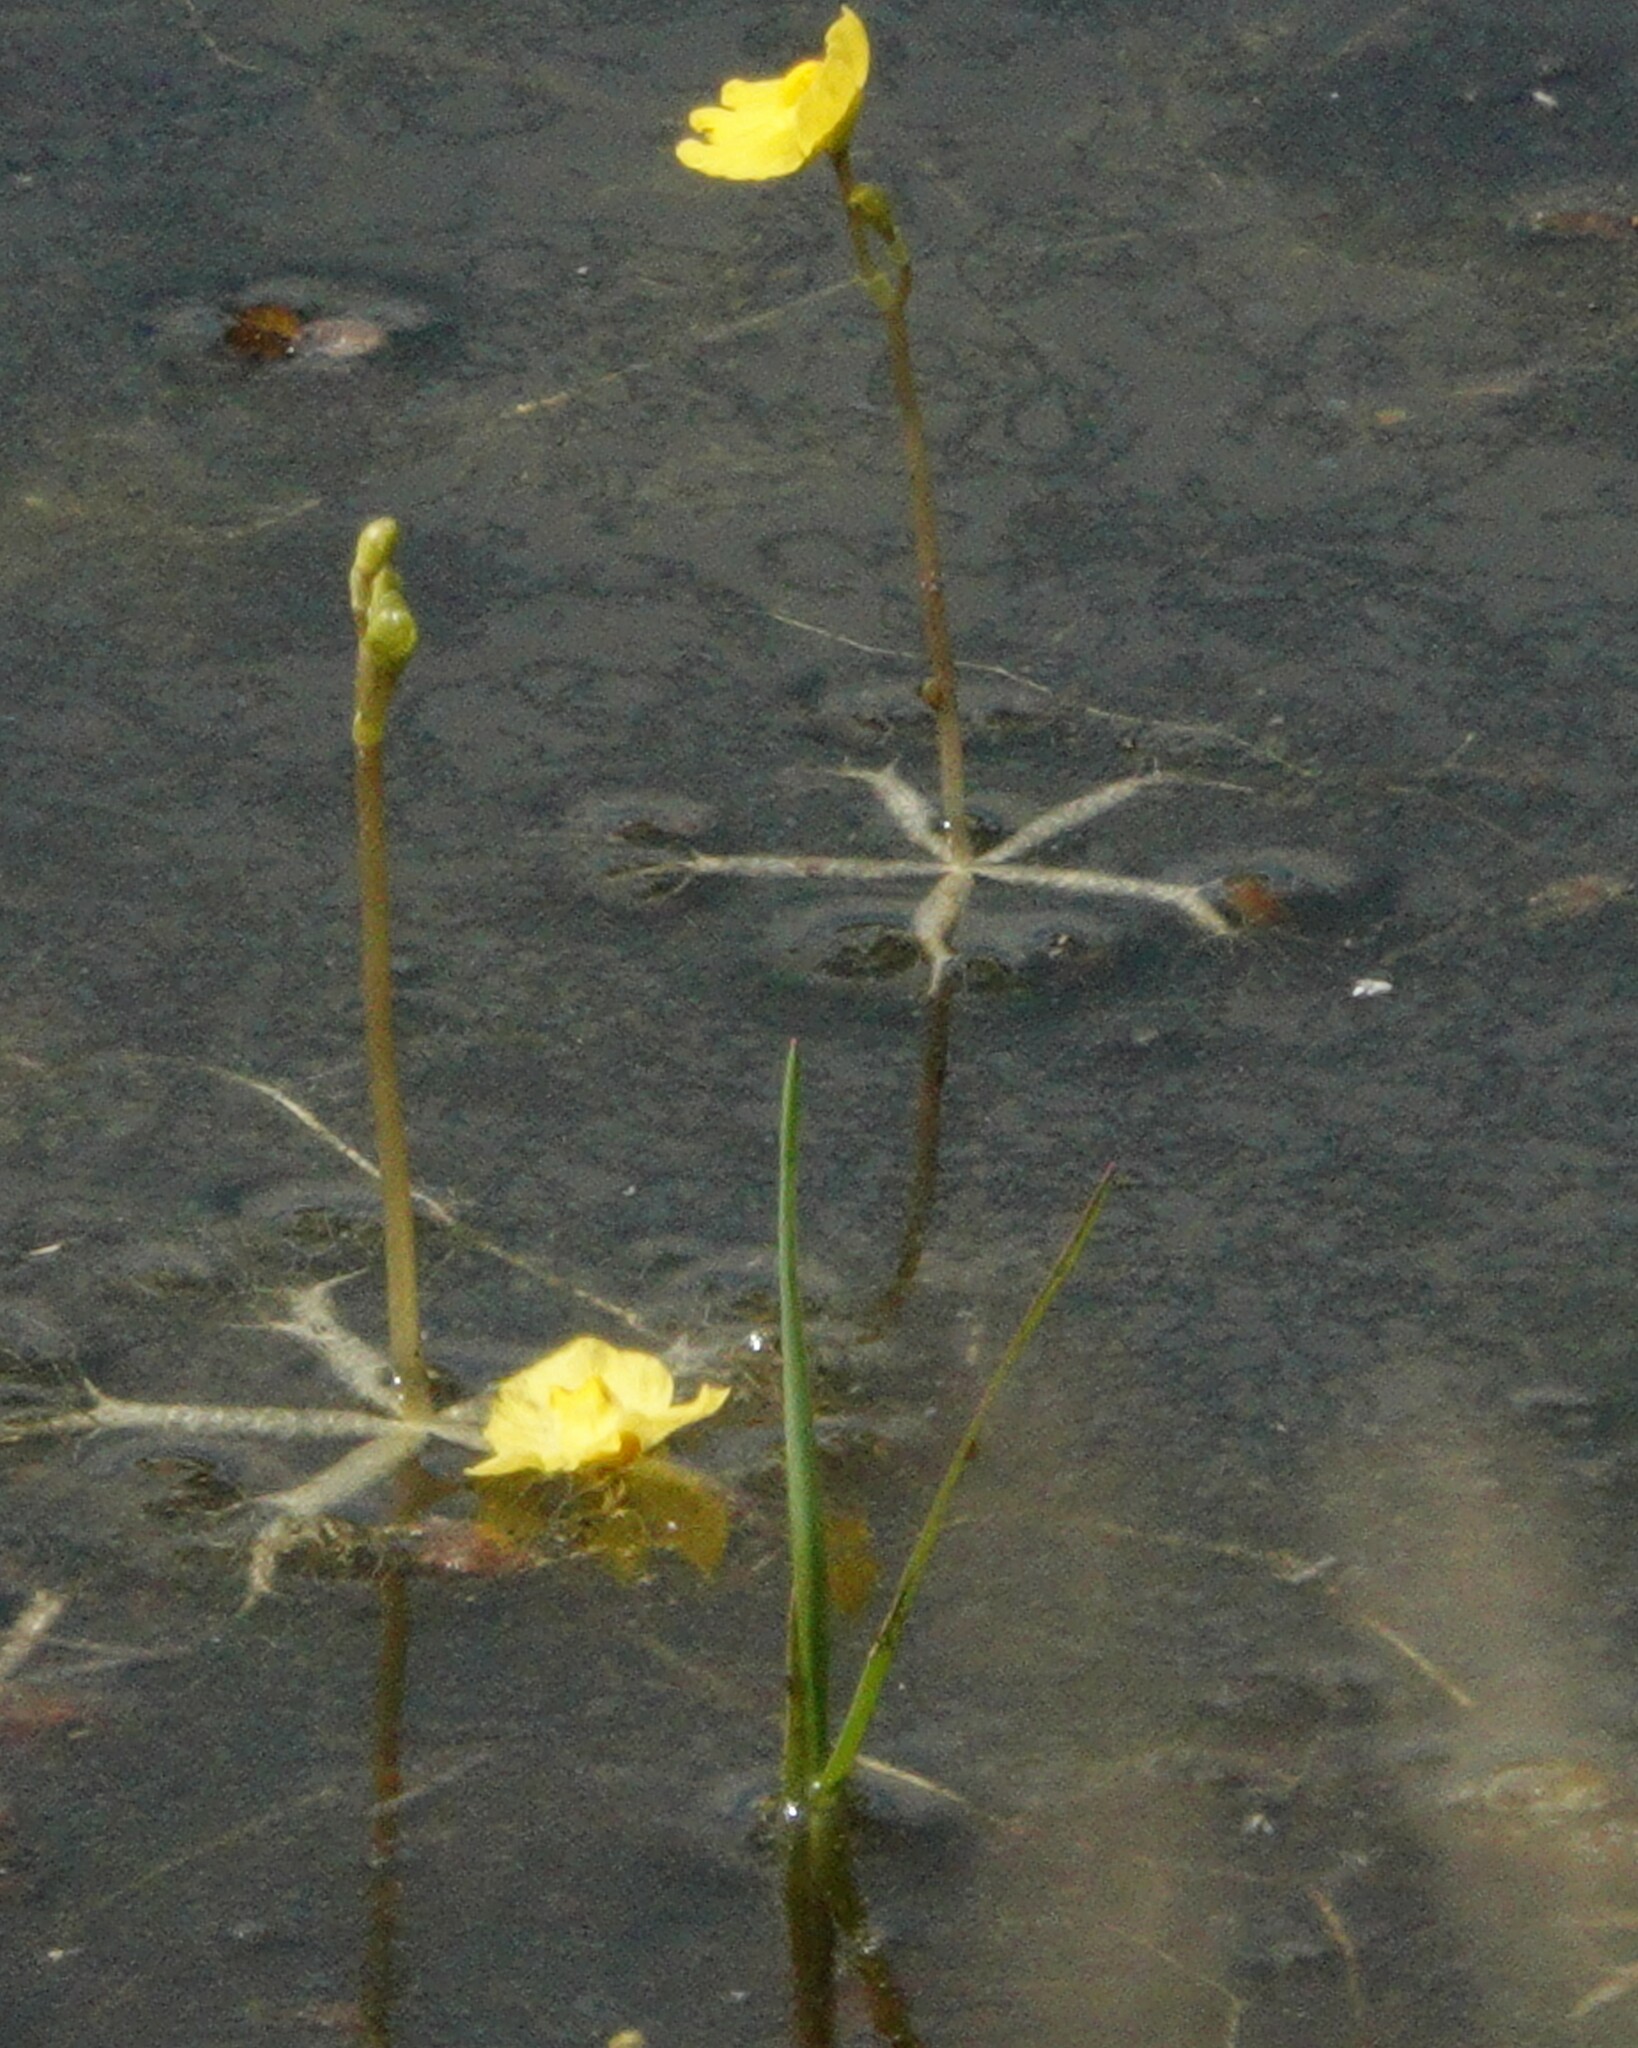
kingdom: Plantae
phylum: Tracheophyta
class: Magnoliopsida
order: Lamiales
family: Lentibulariaceae
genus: Utricularia
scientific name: Utricularia radiata
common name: Floating bladderwort
